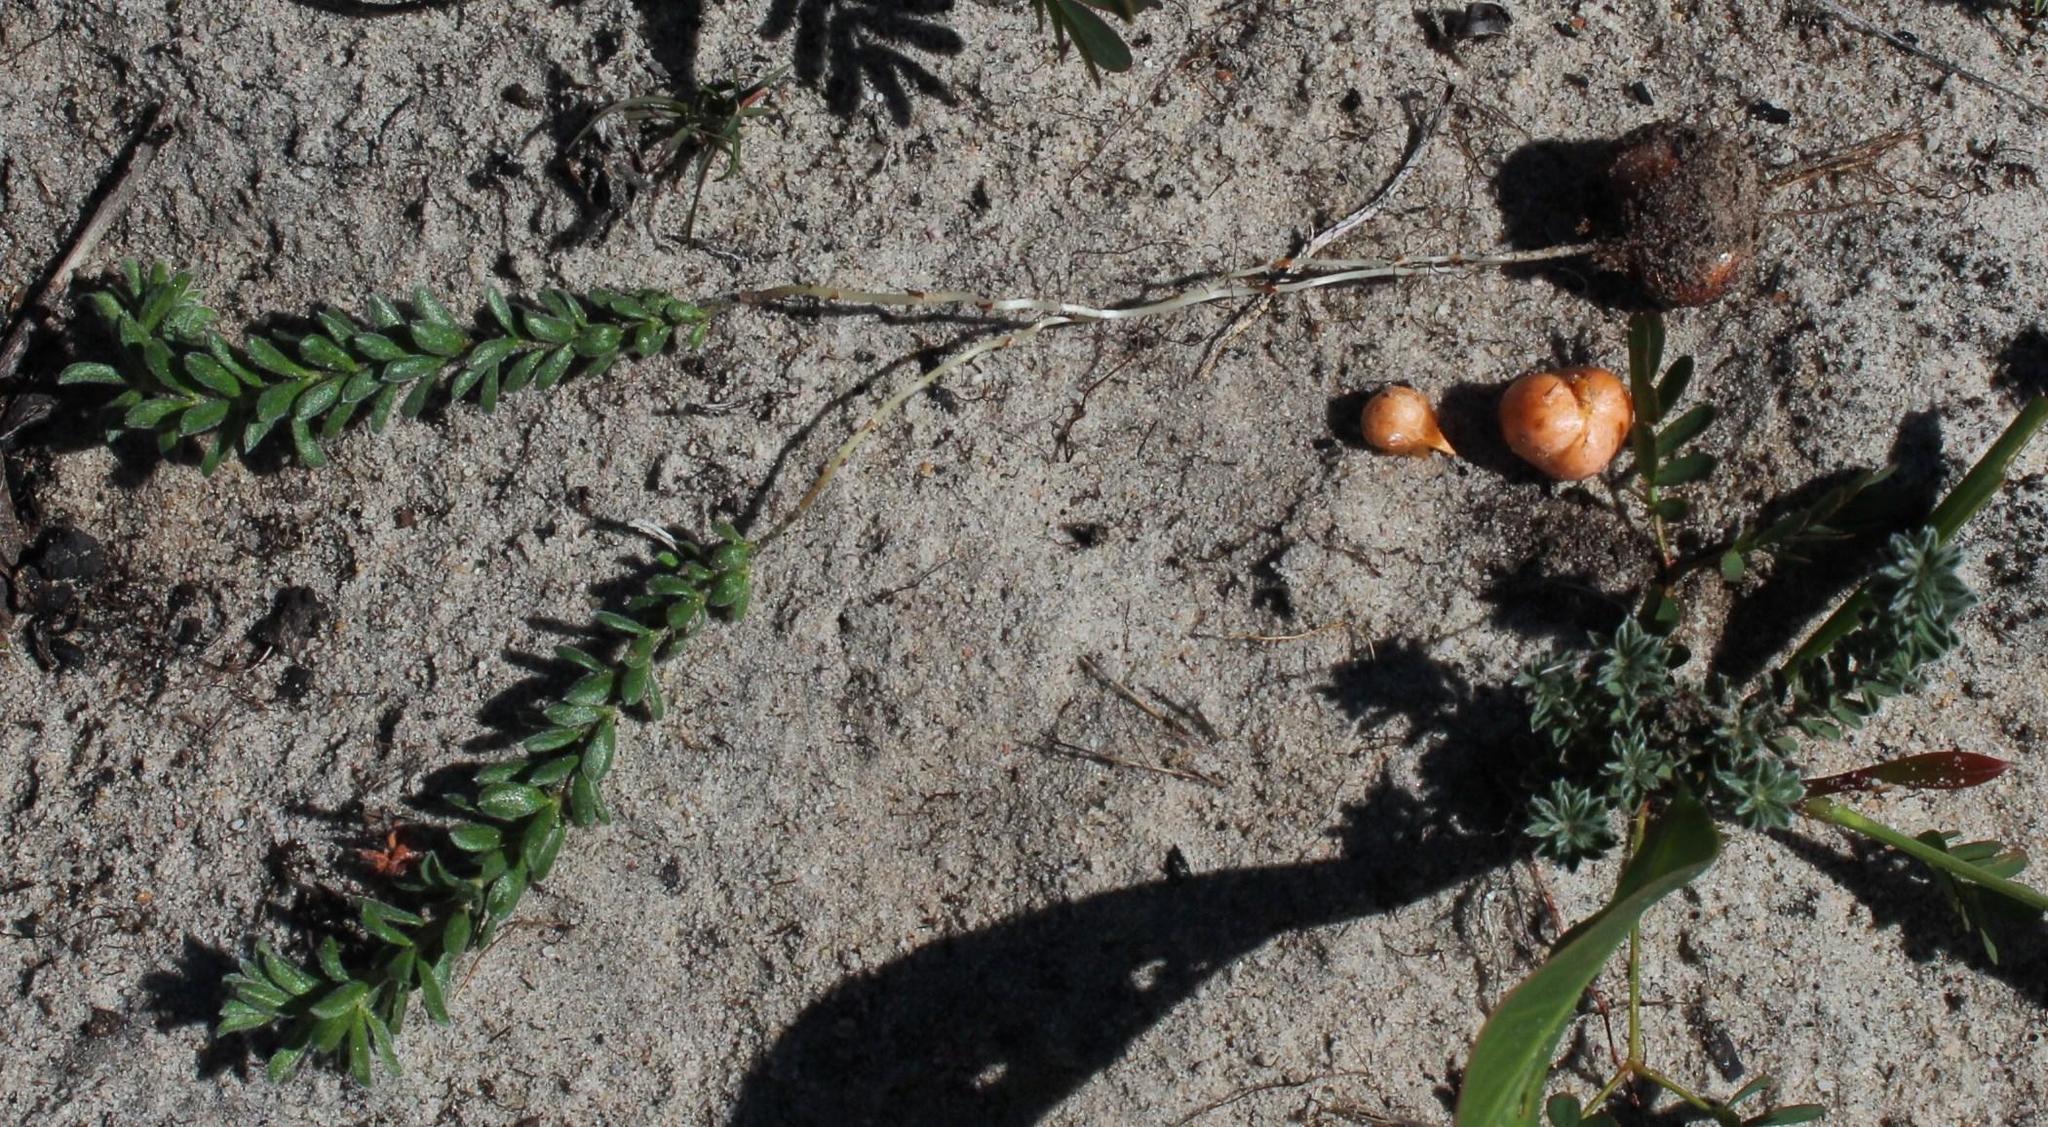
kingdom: Plantae
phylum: Tracheophyta
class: Magnoliopsida
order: Oxalidales
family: Oxalidaceae
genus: Oxalis
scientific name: Oxalis hirta
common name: Tropical woodsorrel
